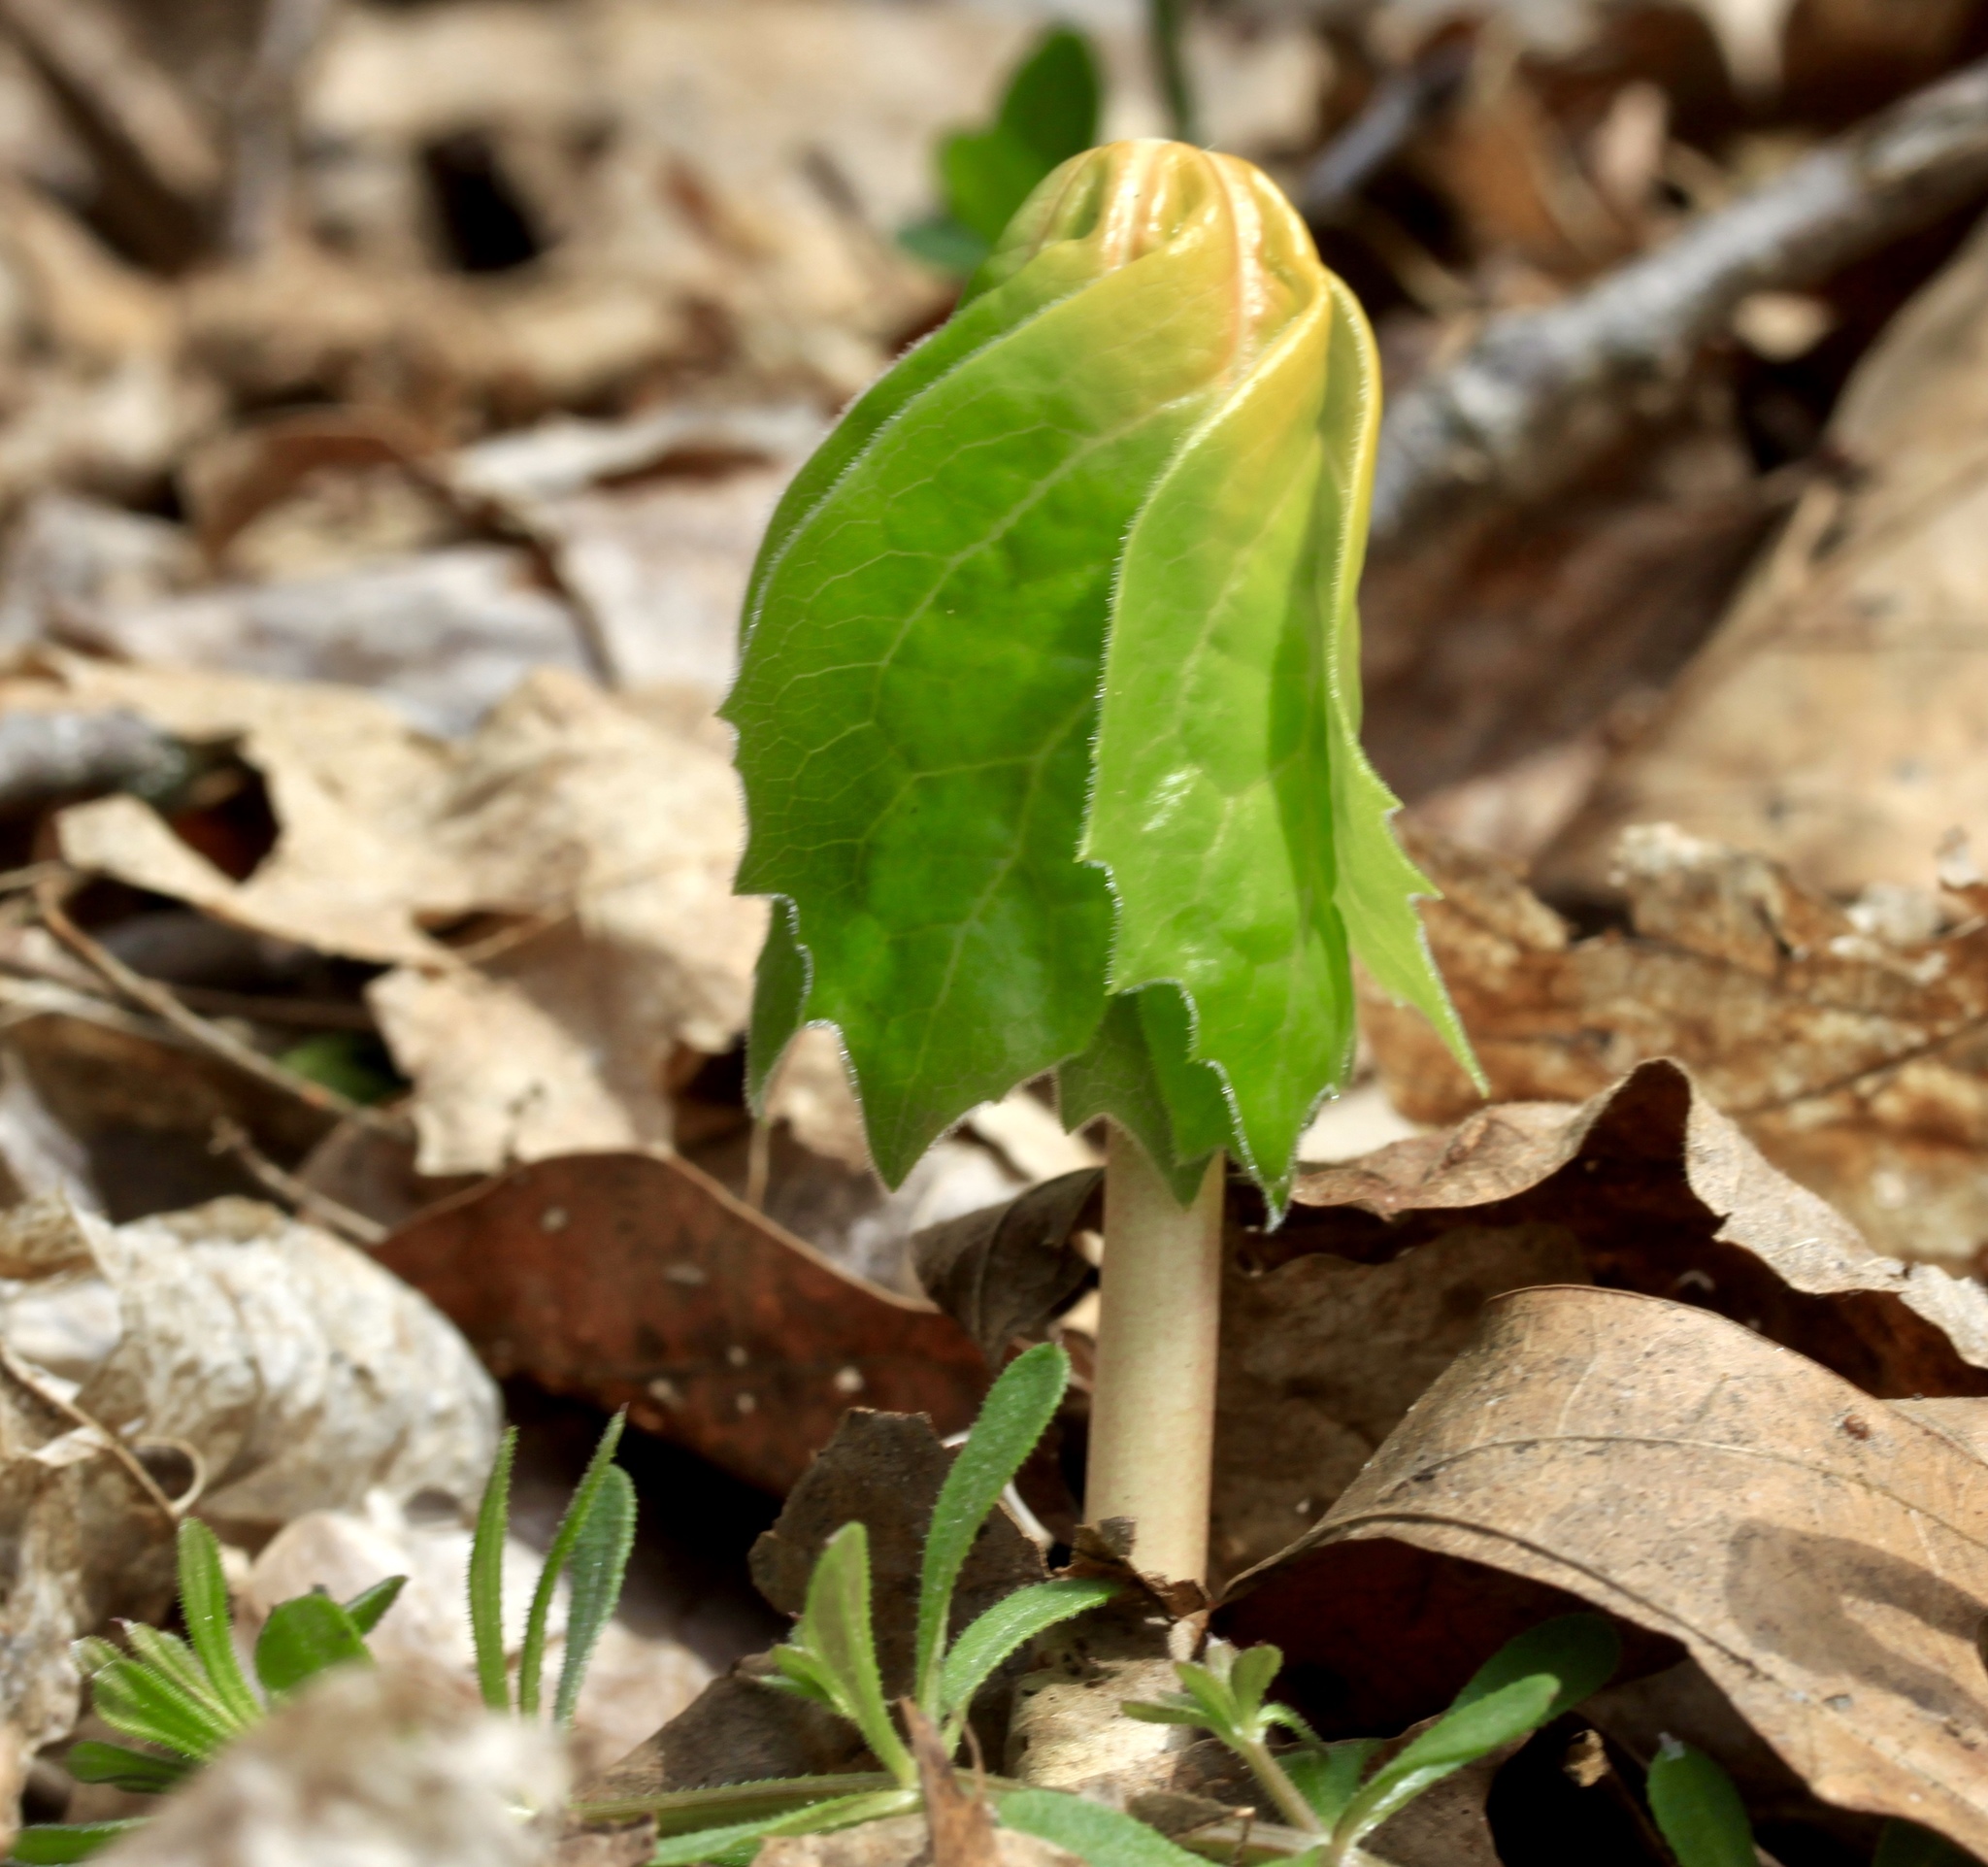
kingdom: Plantae
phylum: Tracheophyta
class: Magnoliopsida
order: Ranunculales
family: Berberidaceae
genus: Podophyllum
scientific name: Podophyllum peltatum
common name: Wild mandrake
